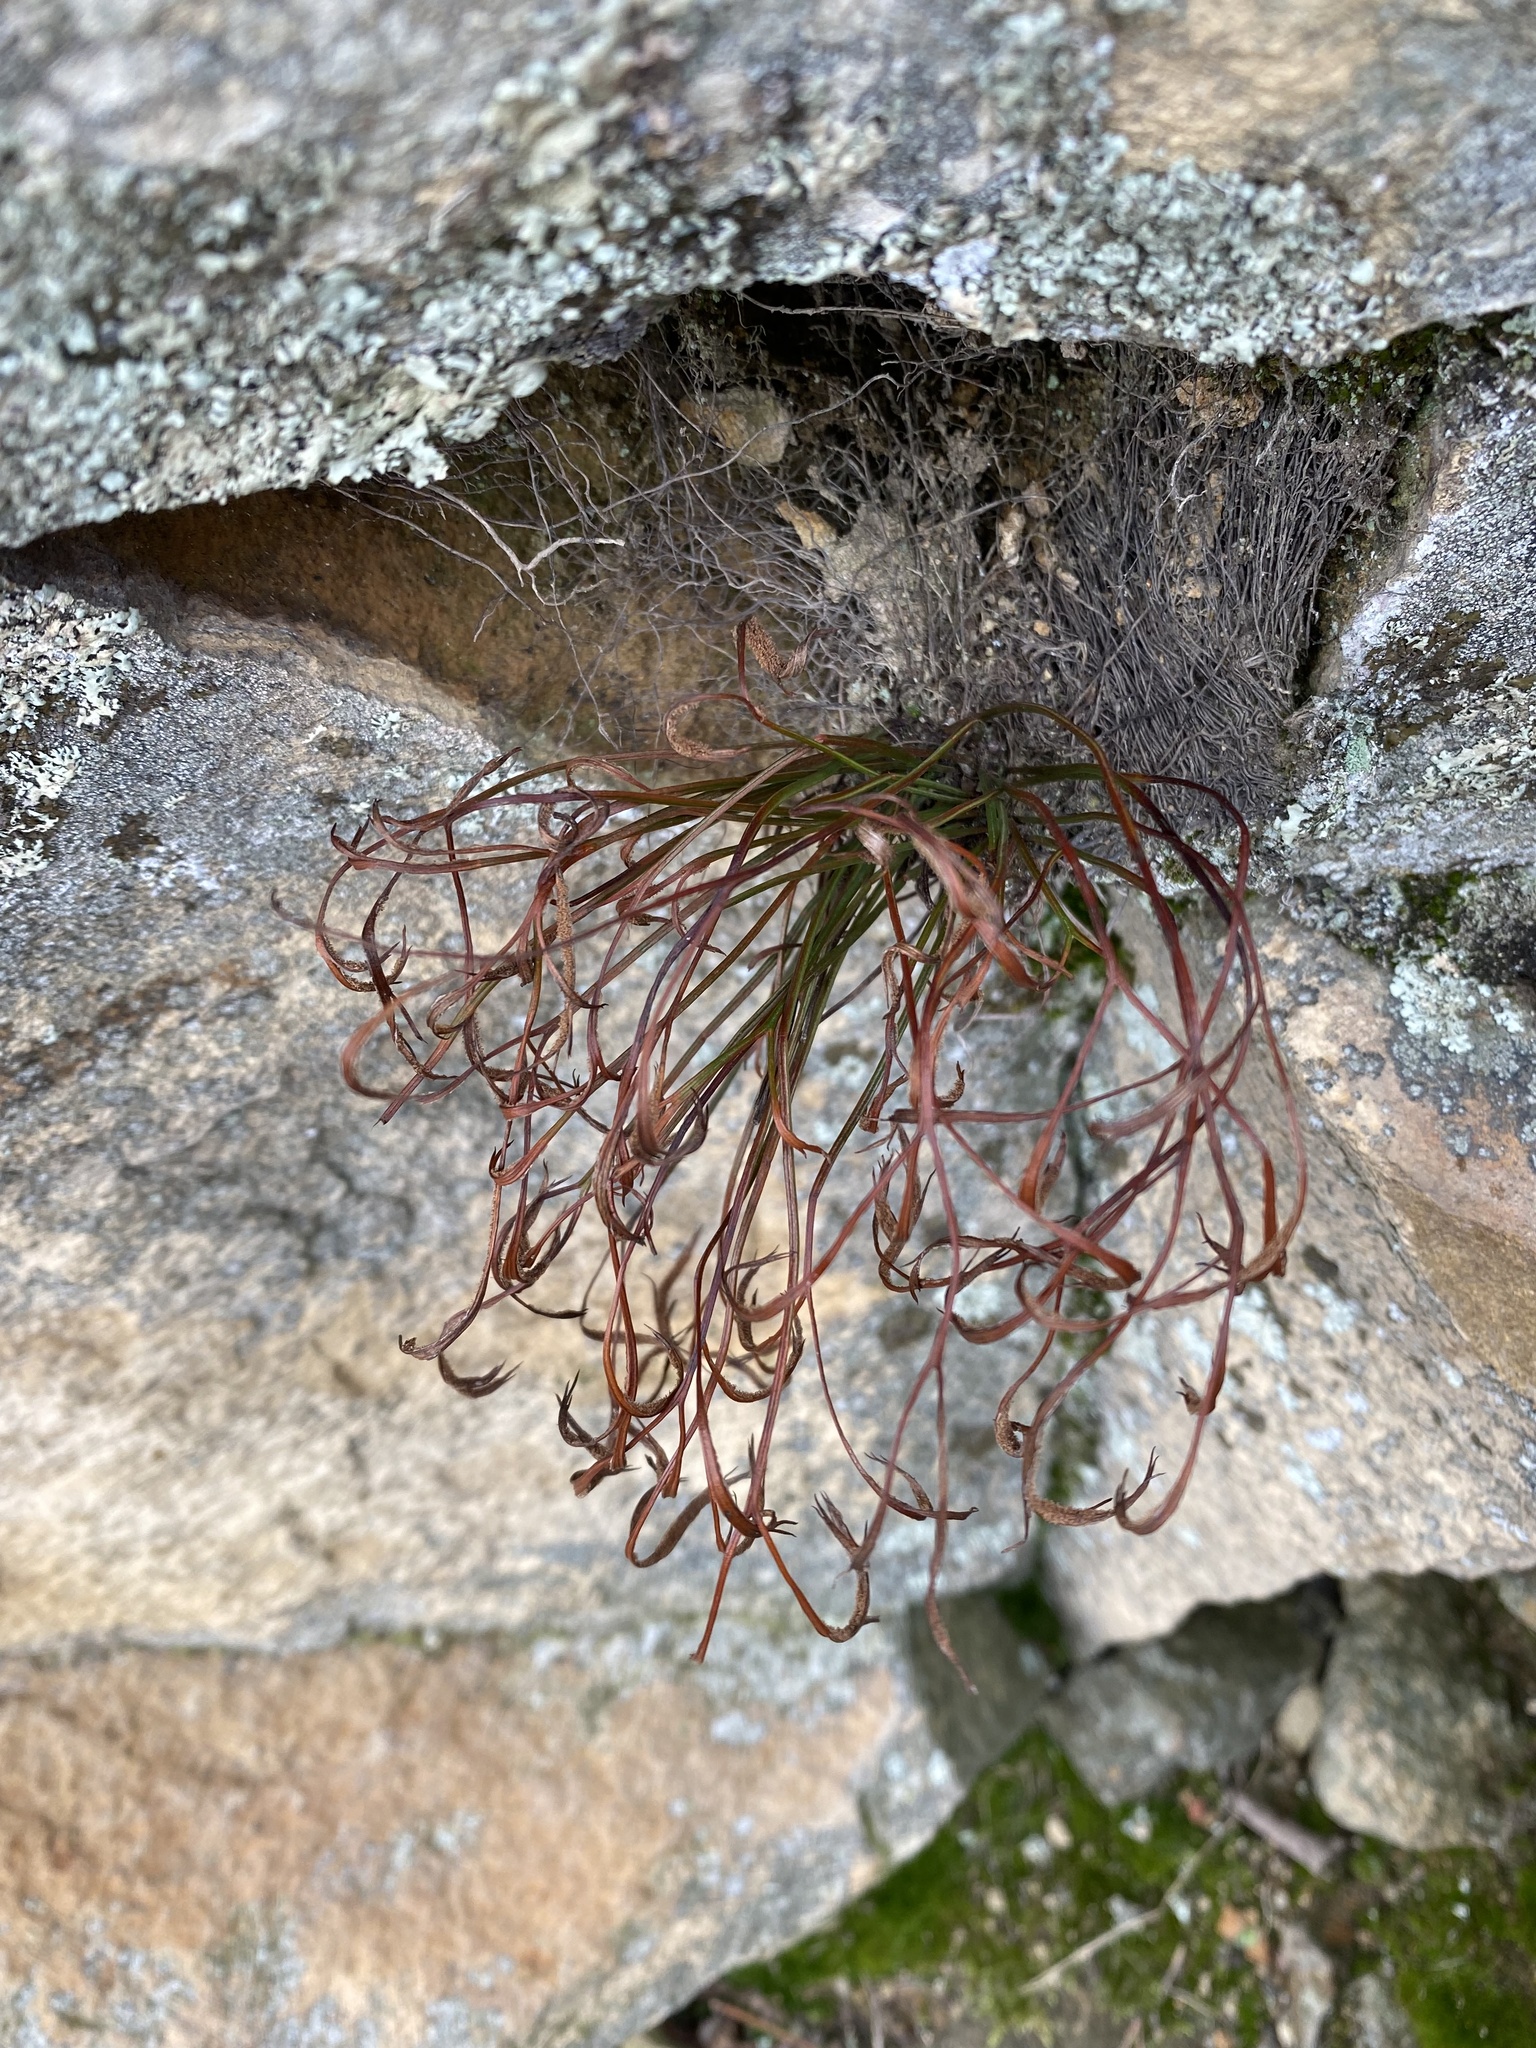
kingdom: Plantae
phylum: Tracheophyta
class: Polypodiopsida
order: Polypodiales
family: Aspleniaceae
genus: Asplenium
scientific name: Asplenium septentrionale
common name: Forked spleenwort
